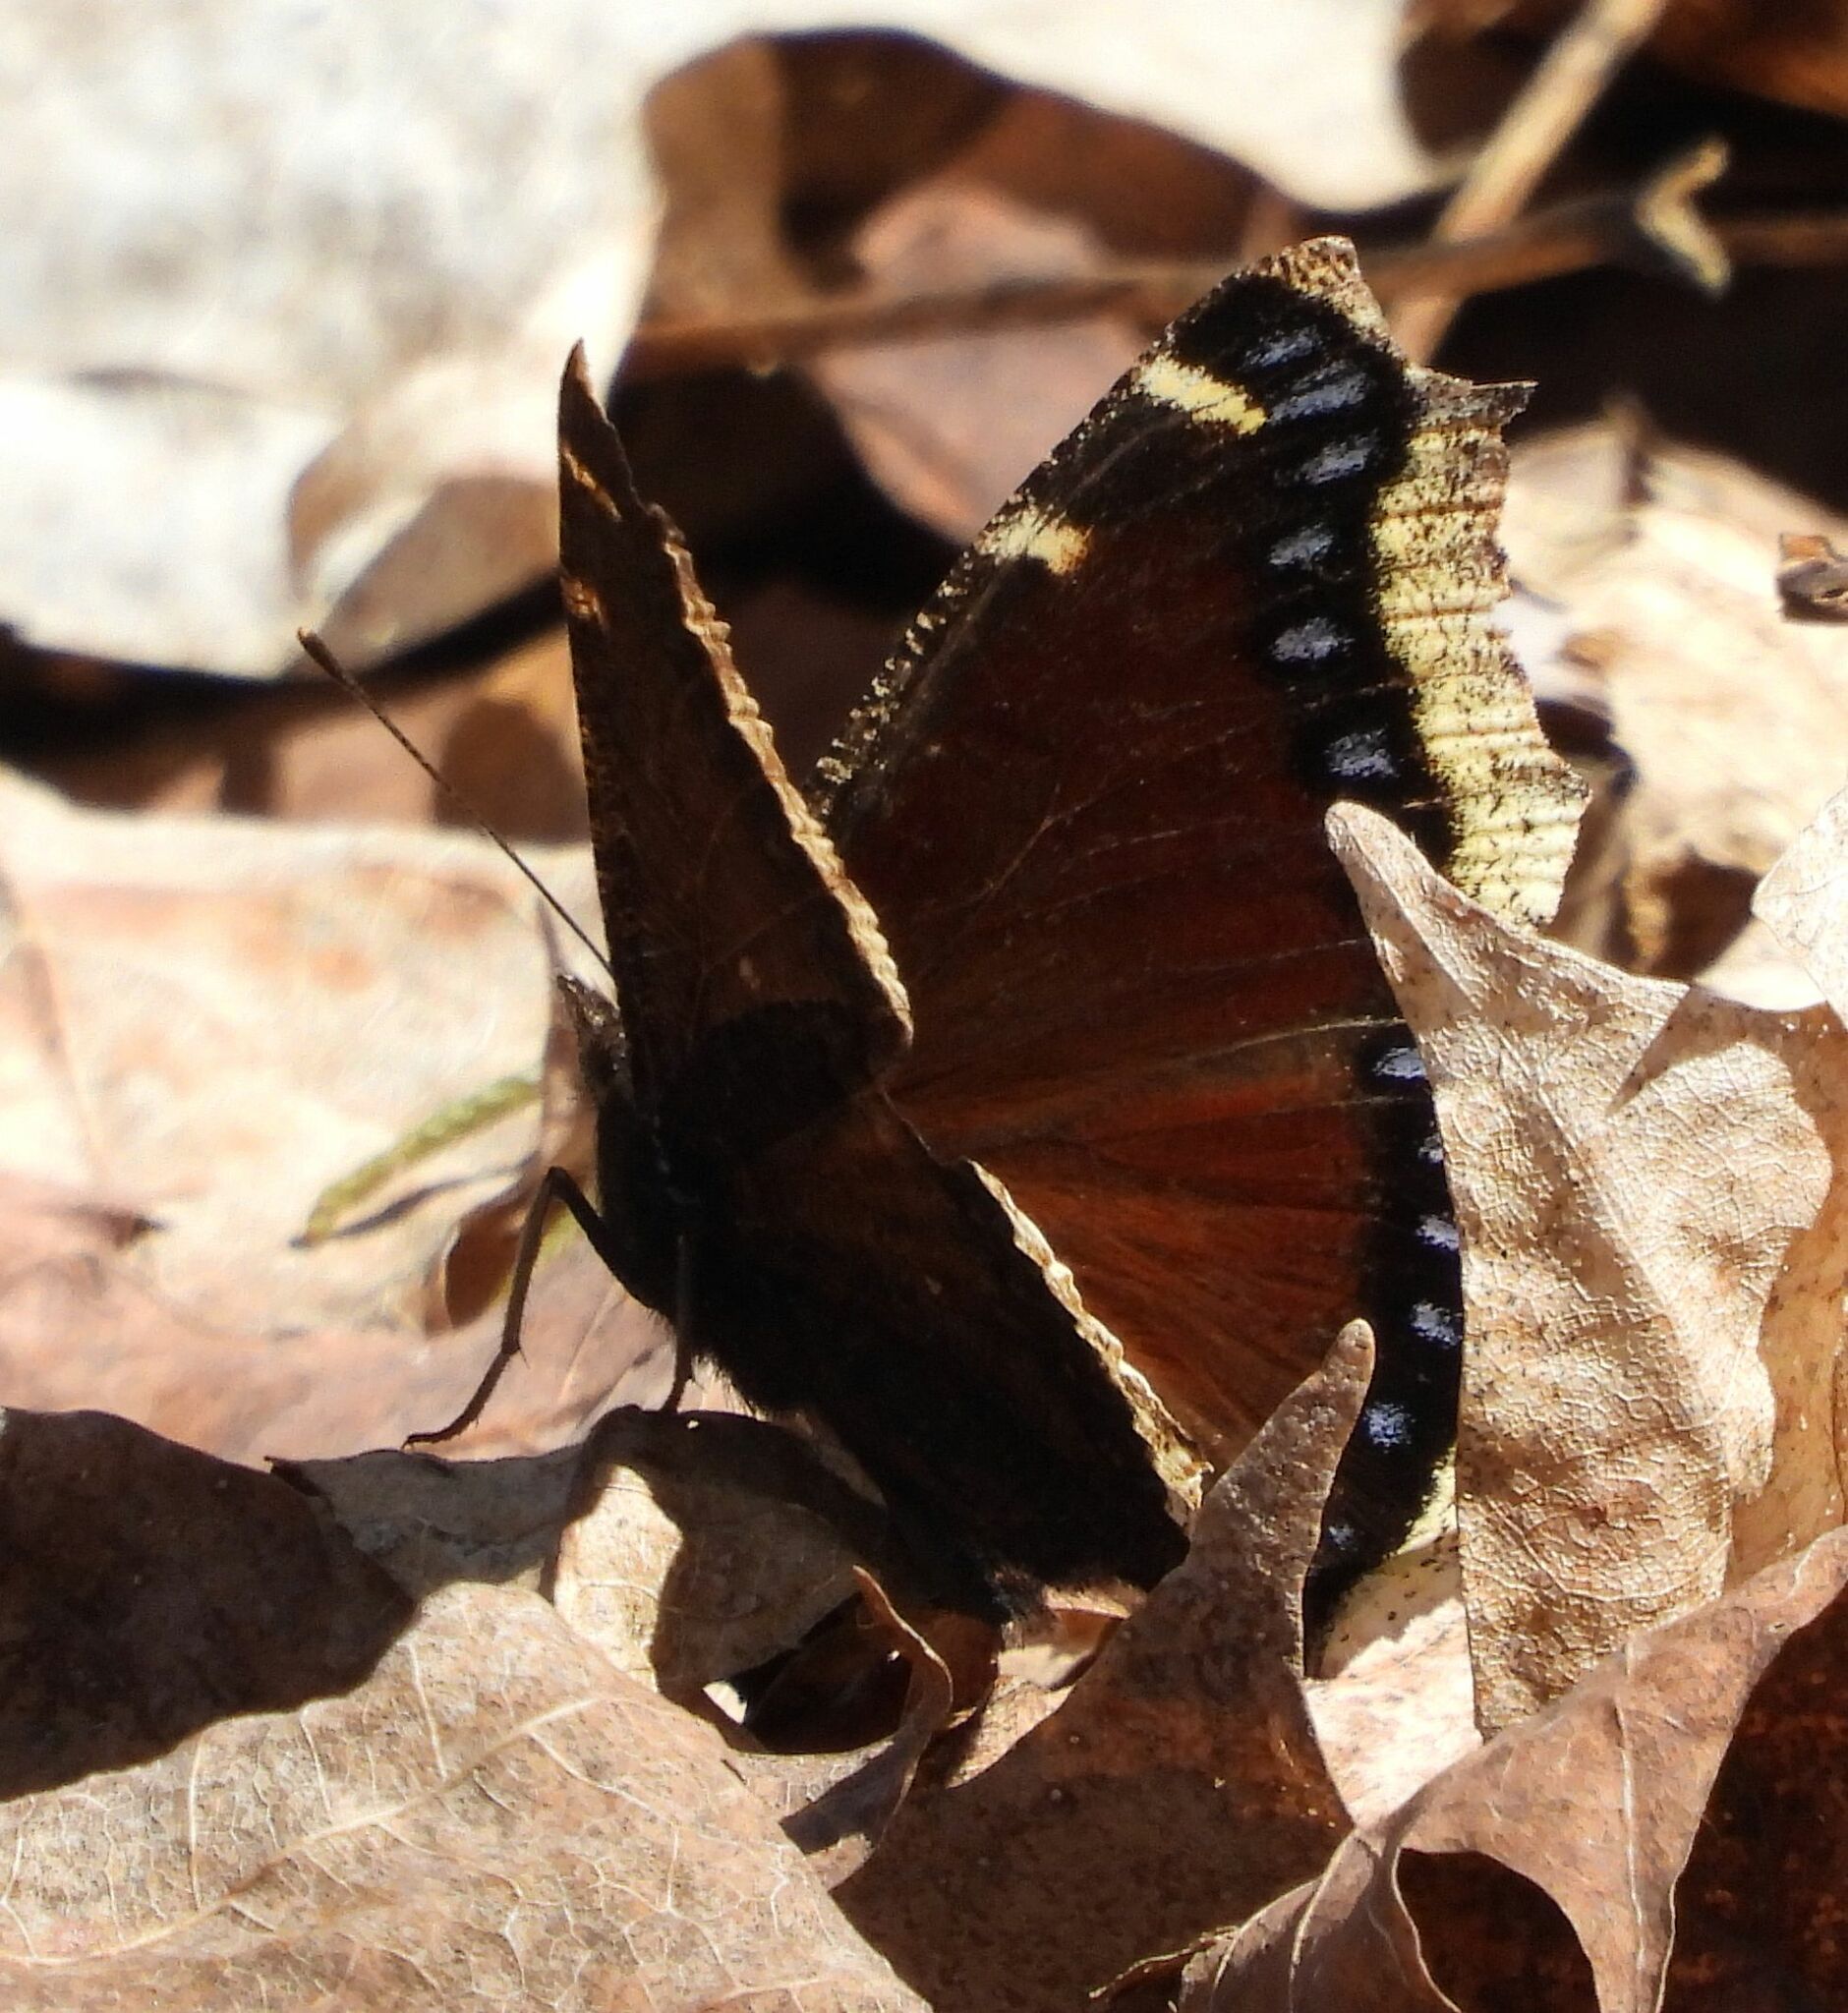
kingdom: Animalia
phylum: Arthropoda
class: Insecta
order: Lepidoptera
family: Nymphalidae
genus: Nymphalis
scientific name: Nymphalis antiopa
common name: Camberwell beauty
